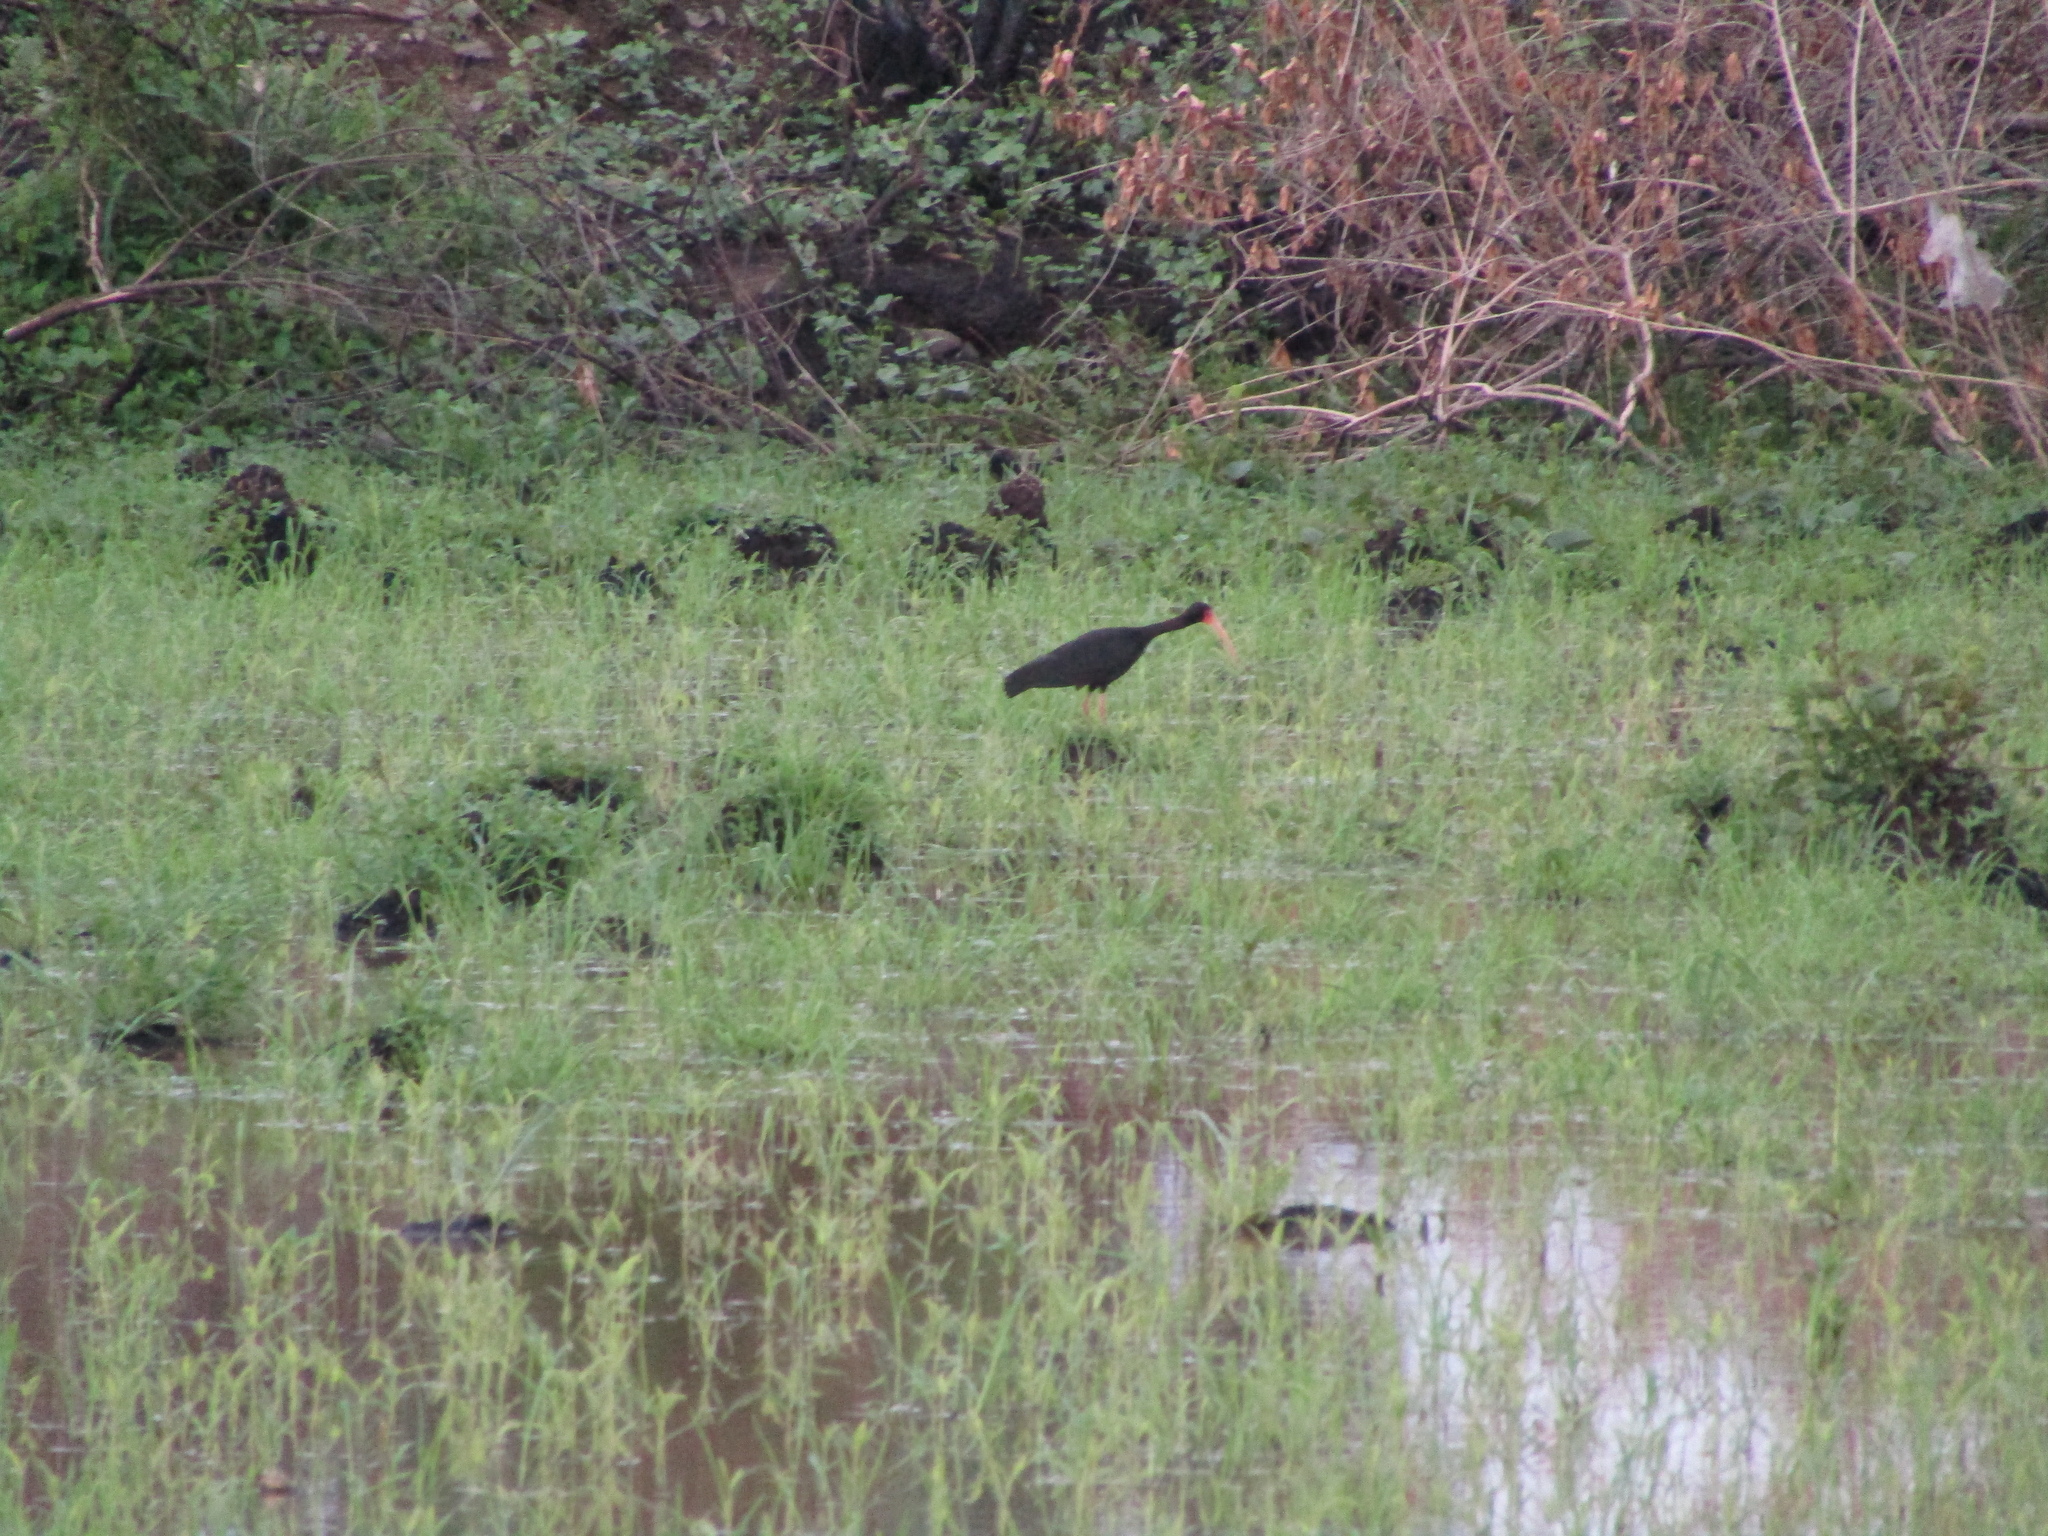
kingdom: Animalia
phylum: Chordata
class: Aves
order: Pelecaniformes
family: Threskiornithidae
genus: Phimosus
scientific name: Phimosus infuscatus
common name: Bare-faced ibis
